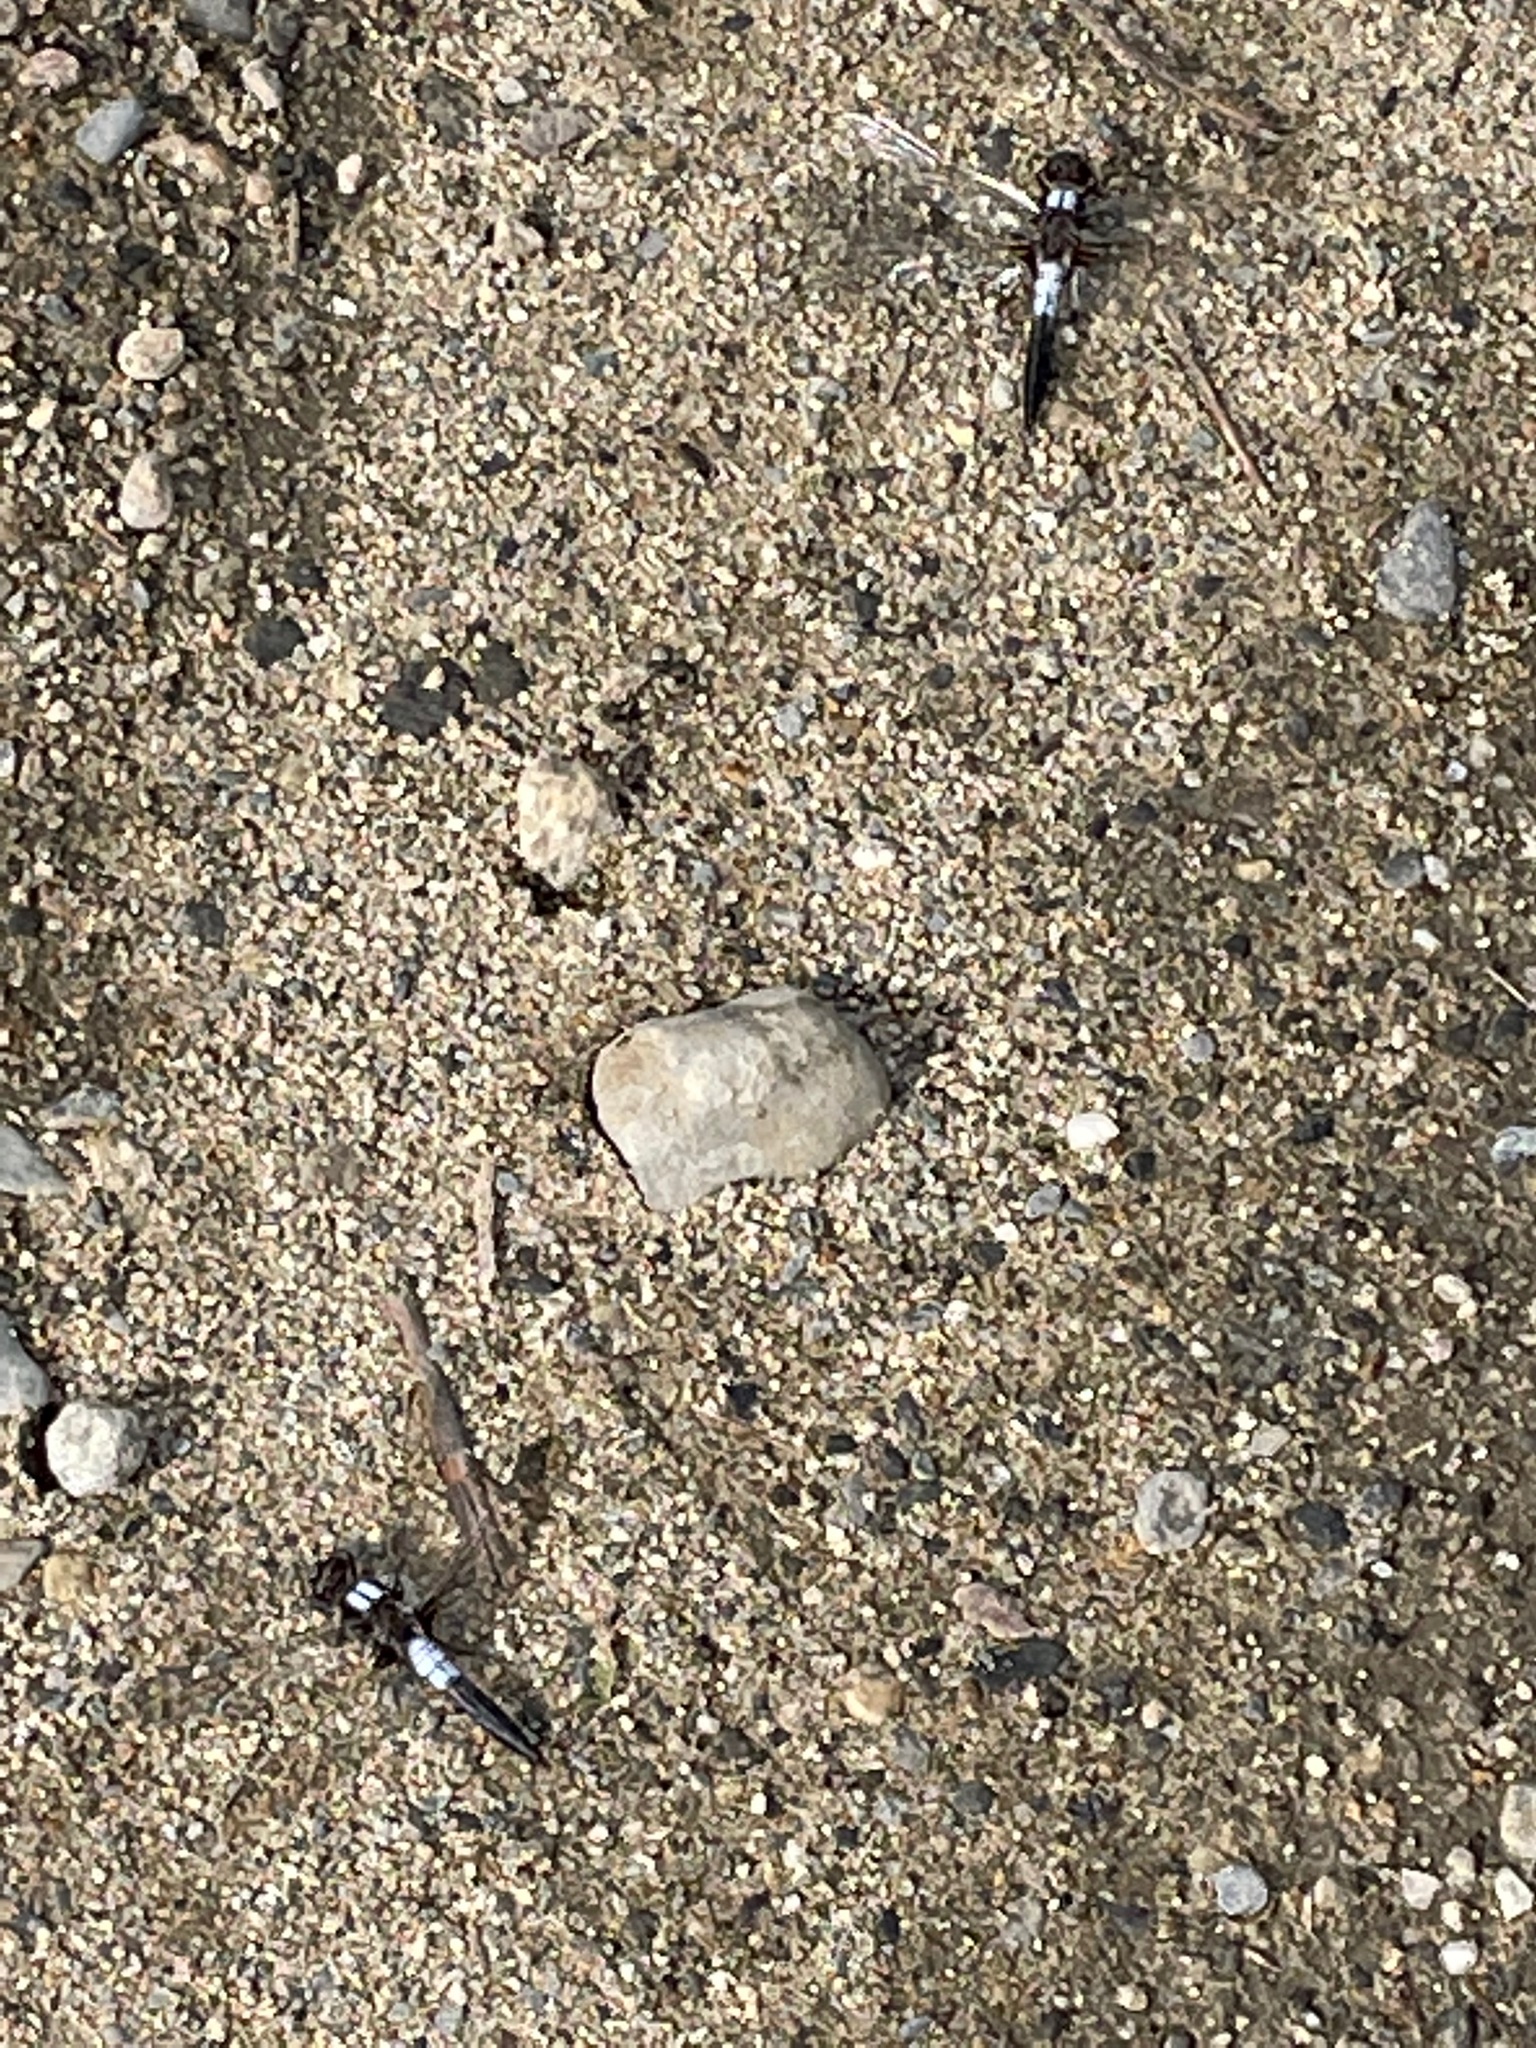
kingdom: Animalia
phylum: Arthropoda
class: Insecta
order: Odonata
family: Libellulidae
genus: Ladona
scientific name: Ladona julia
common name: Chalk-fronted corporal
